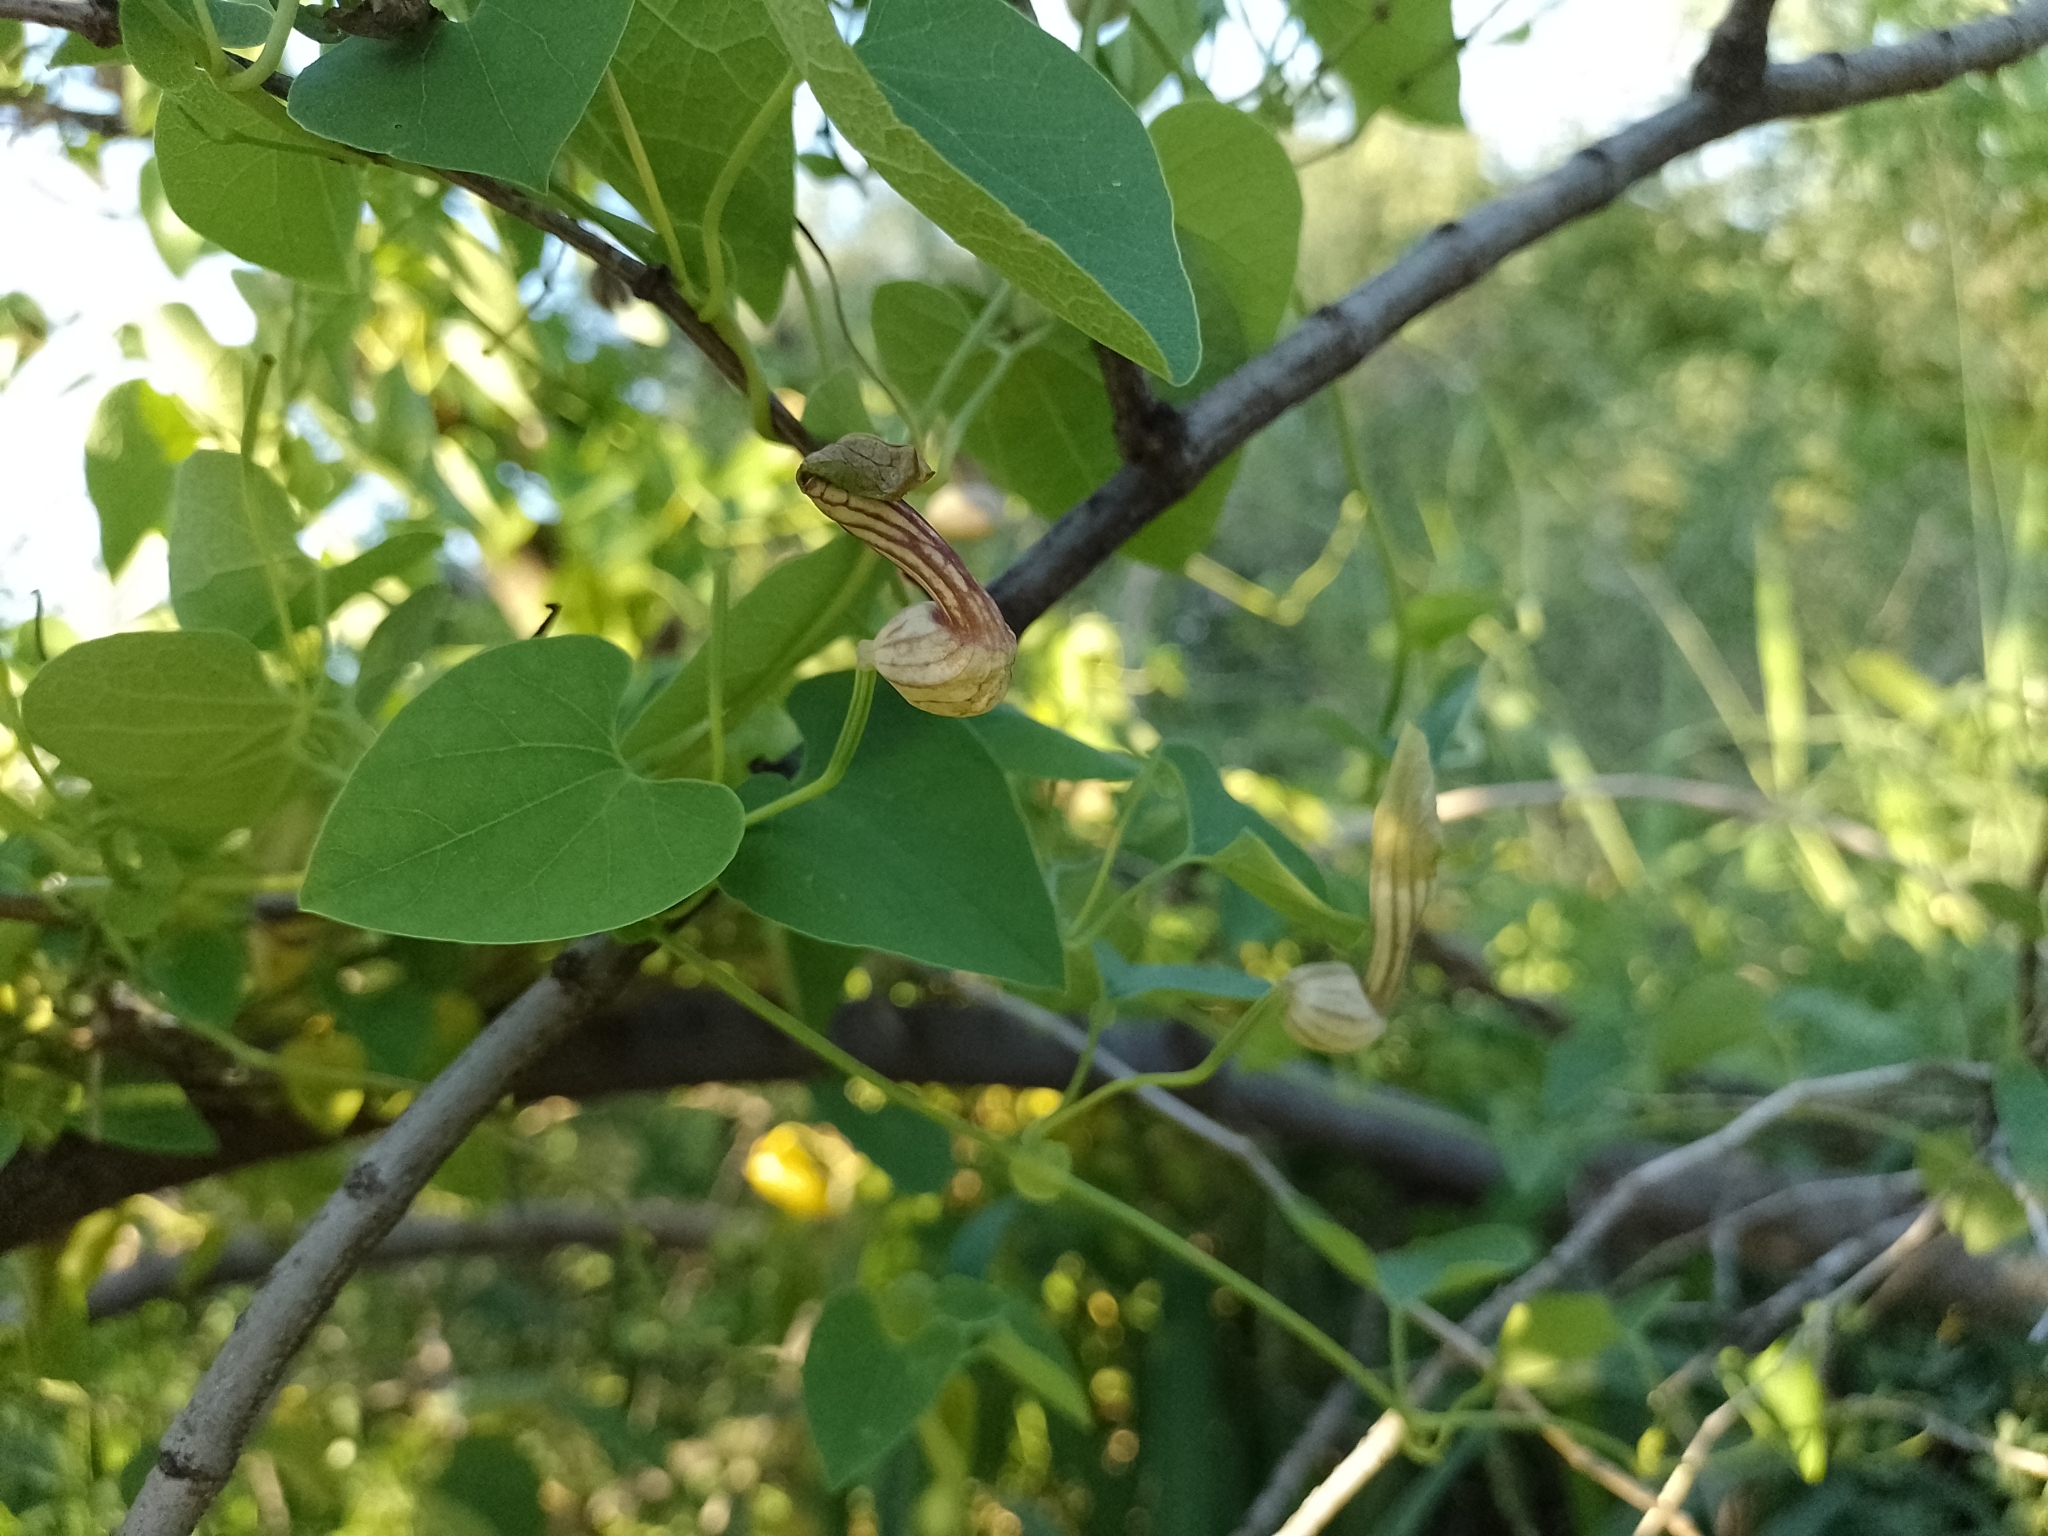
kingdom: Plantae
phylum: Tracheophyta
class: Magnoliopsida
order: Piperales
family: Aristolochiaceae
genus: Aristolochia
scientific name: Aristolochia argentina
